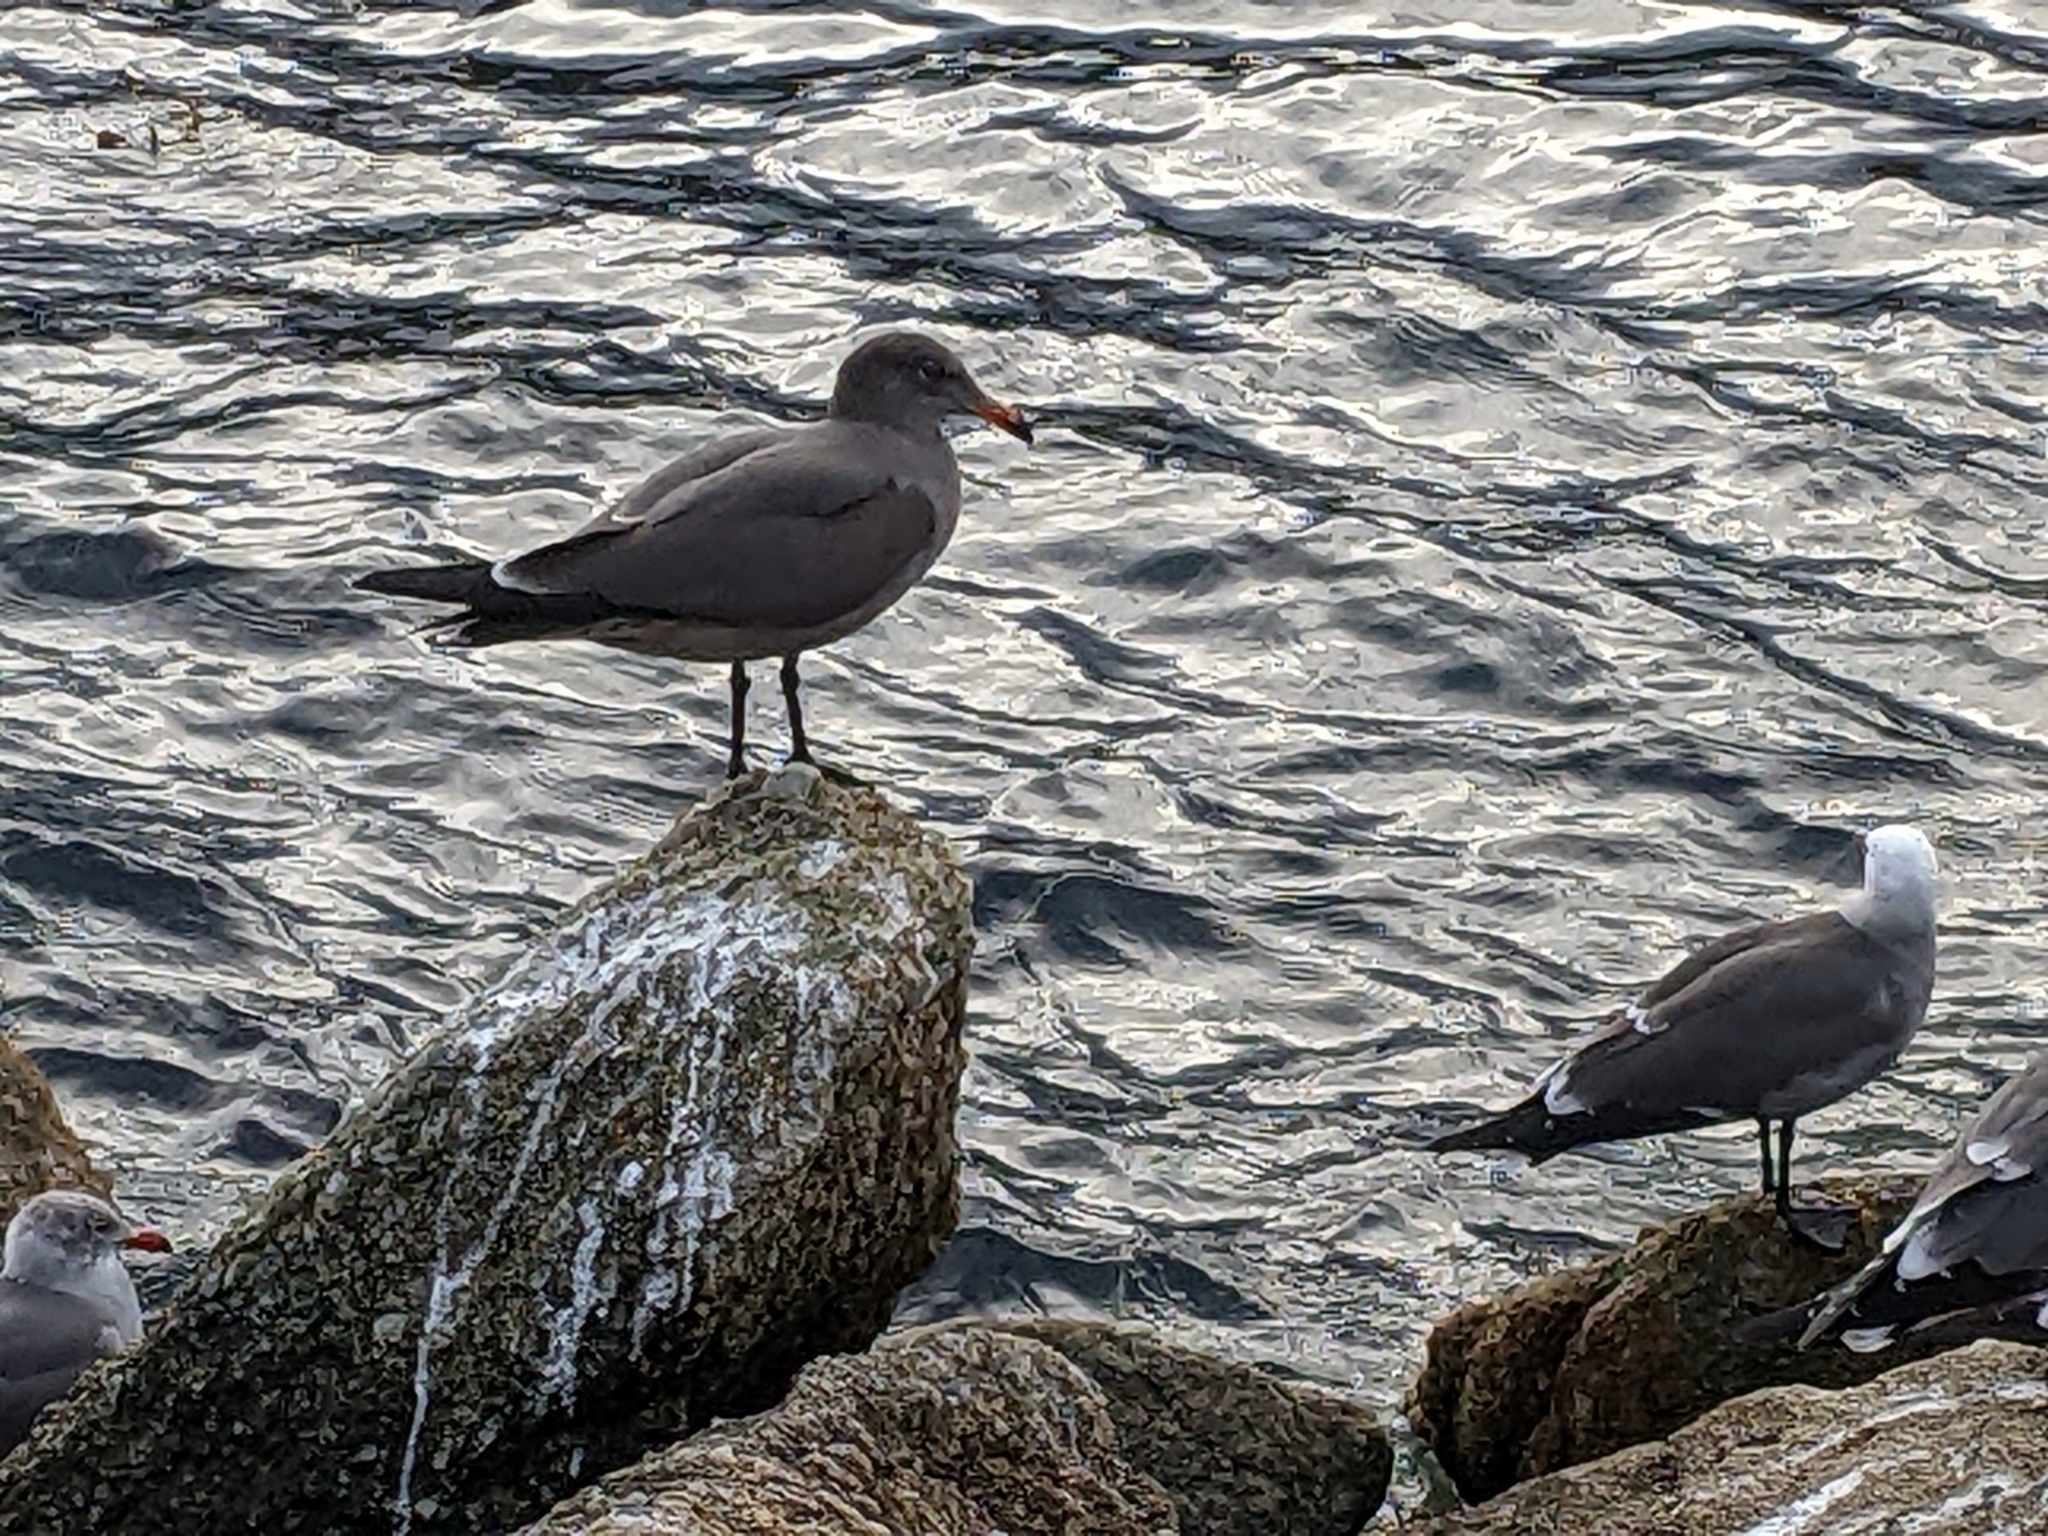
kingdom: Animalia
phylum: Chordata
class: Aves
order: Charadriiformes
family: Laridae
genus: Larus
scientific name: Larus heermanni
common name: Heermann's gull
